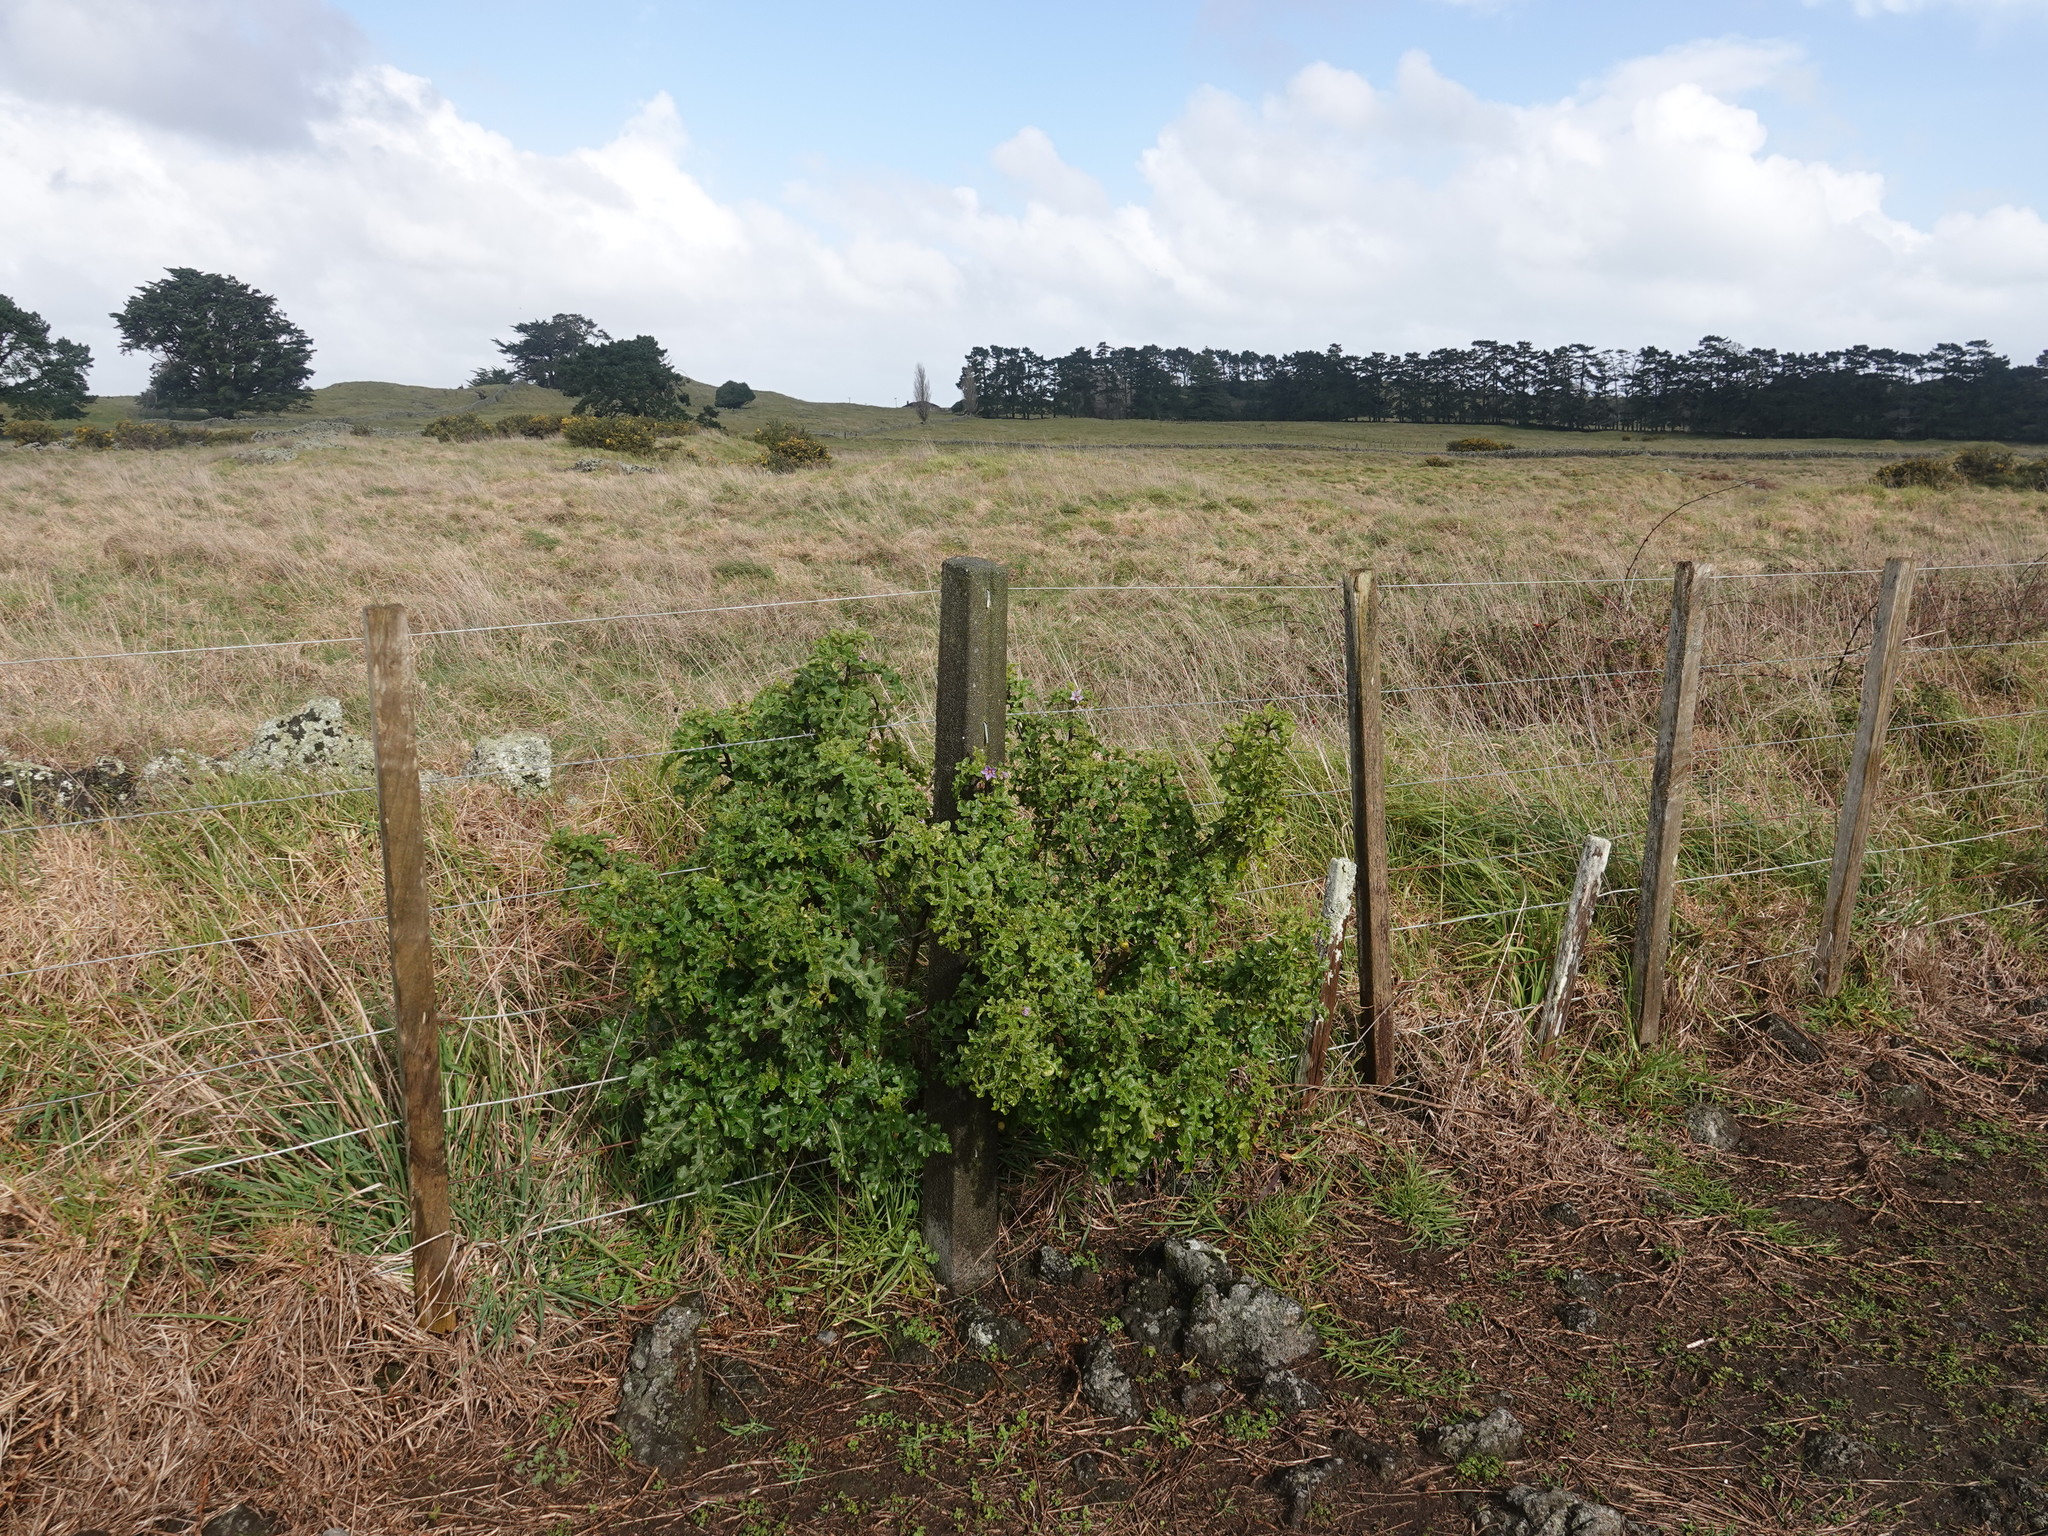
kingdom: Plantae
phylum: Tracheophyta
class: Magnoliopsida
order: Solanales
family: Solanaceae
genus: Solanum
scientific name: Solanum linnaeanum
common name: Nightshade
